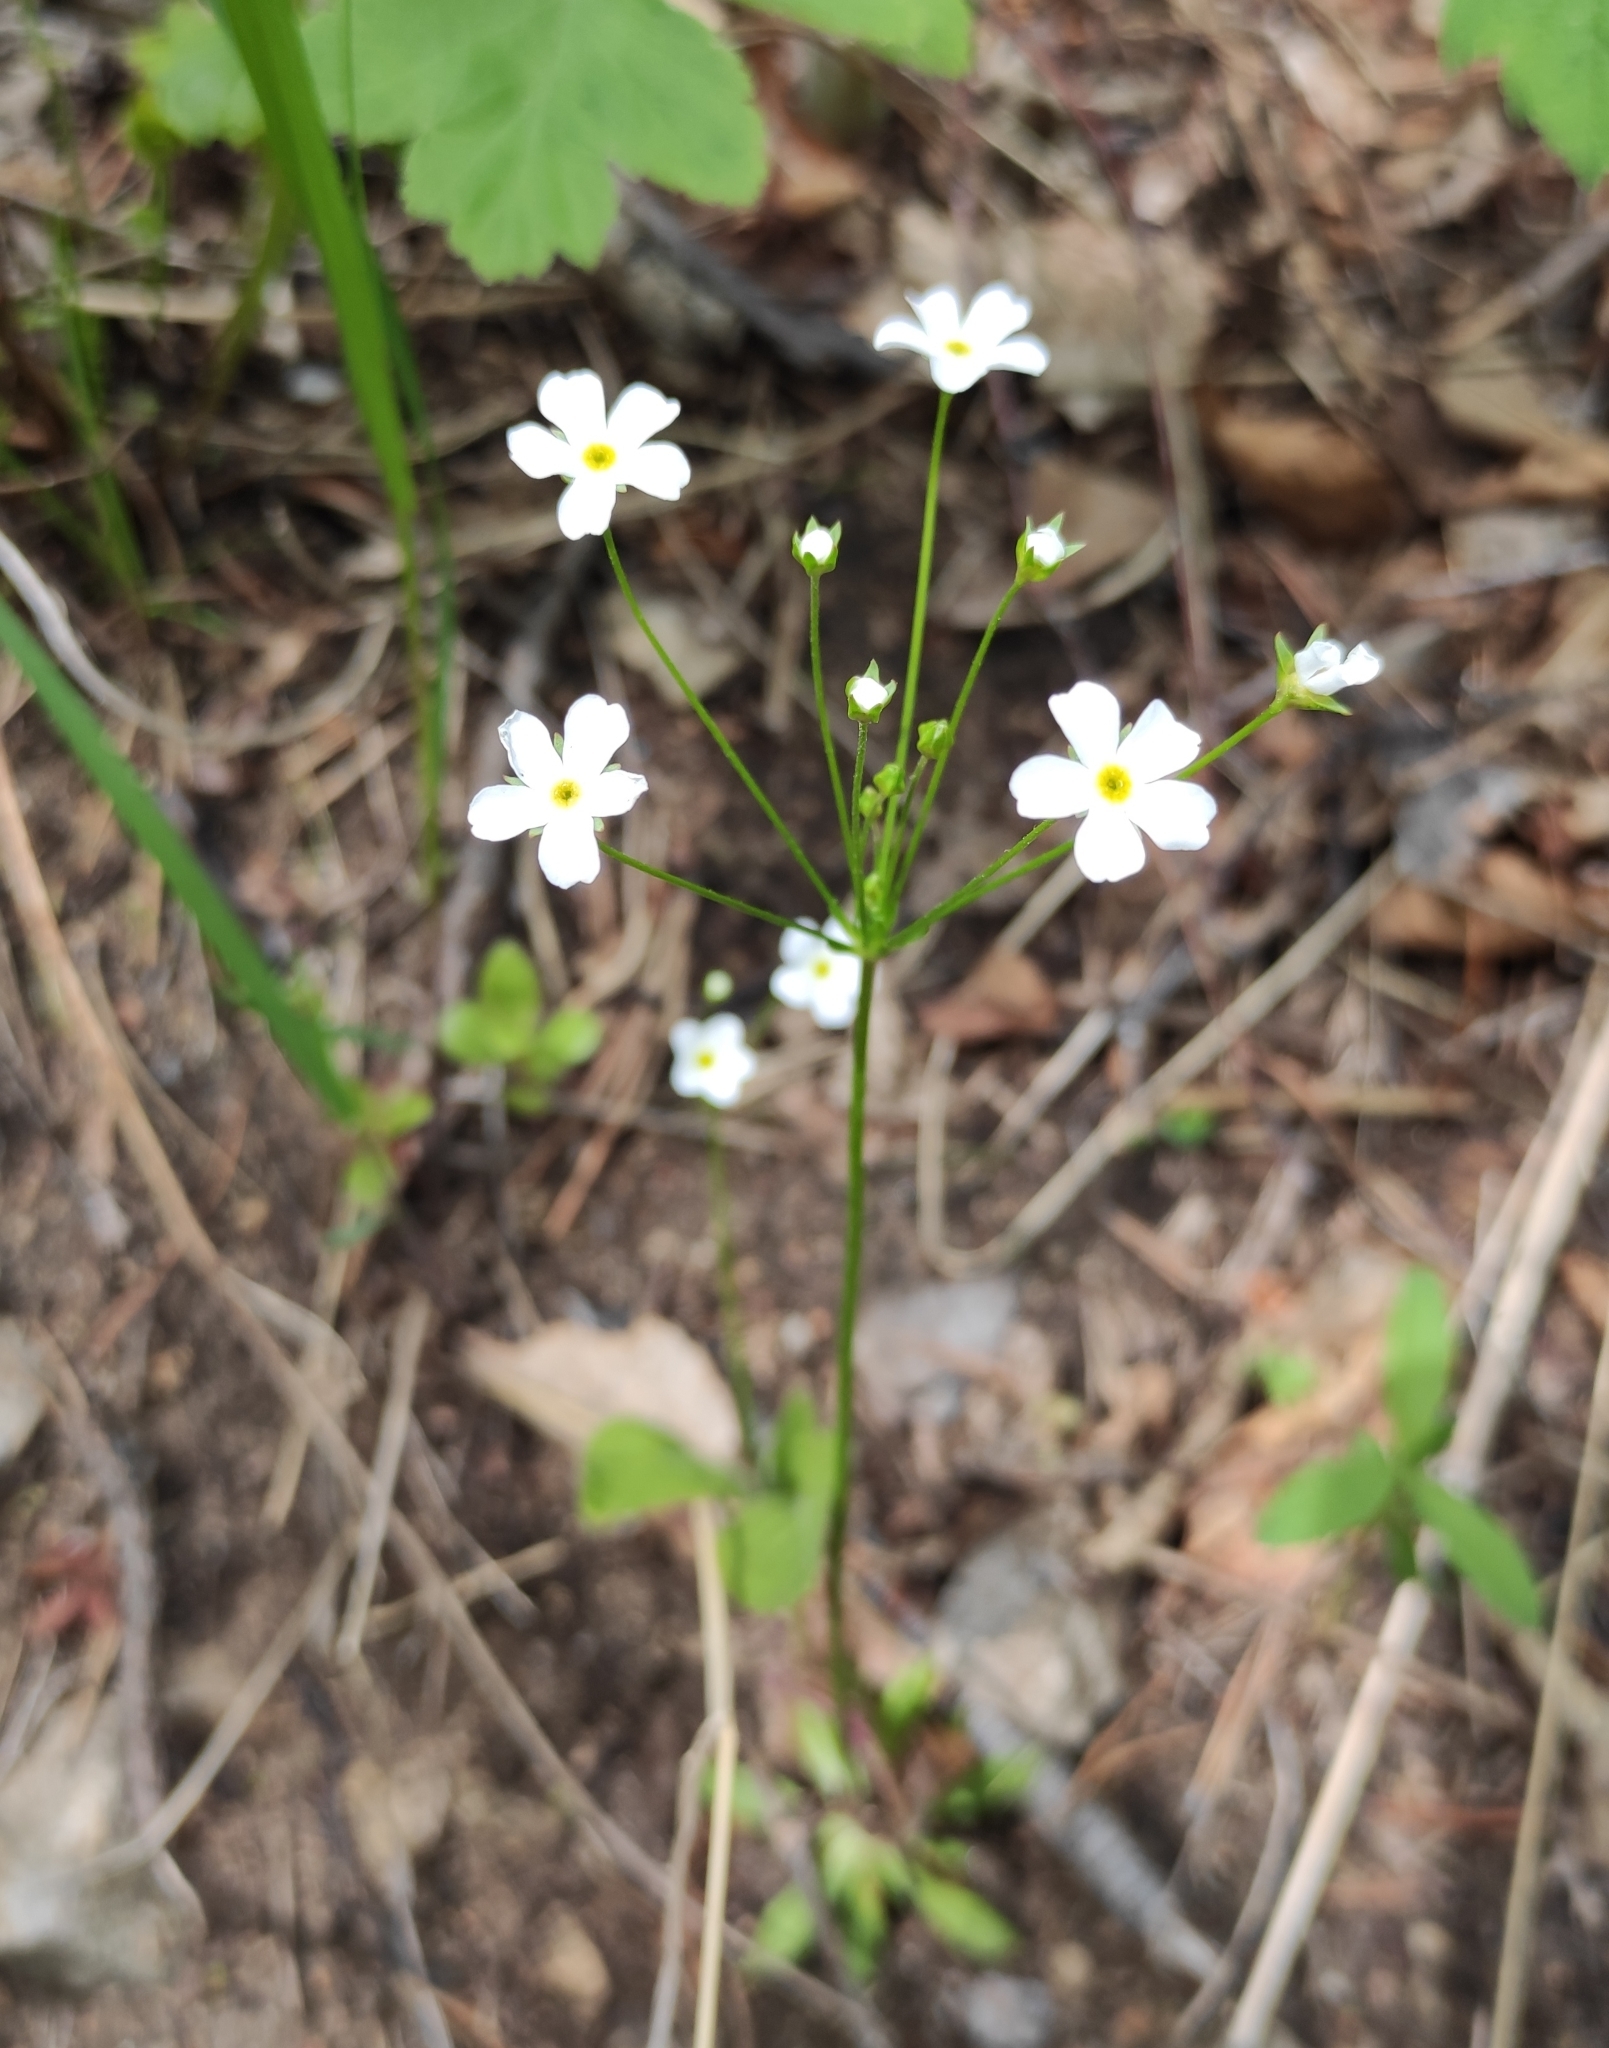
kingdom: Plantae
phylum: Tracheophyta
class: Magnoliopsida
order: Ericales
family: Primulaceae
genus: Androsace
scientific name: Androsace lactiflora
